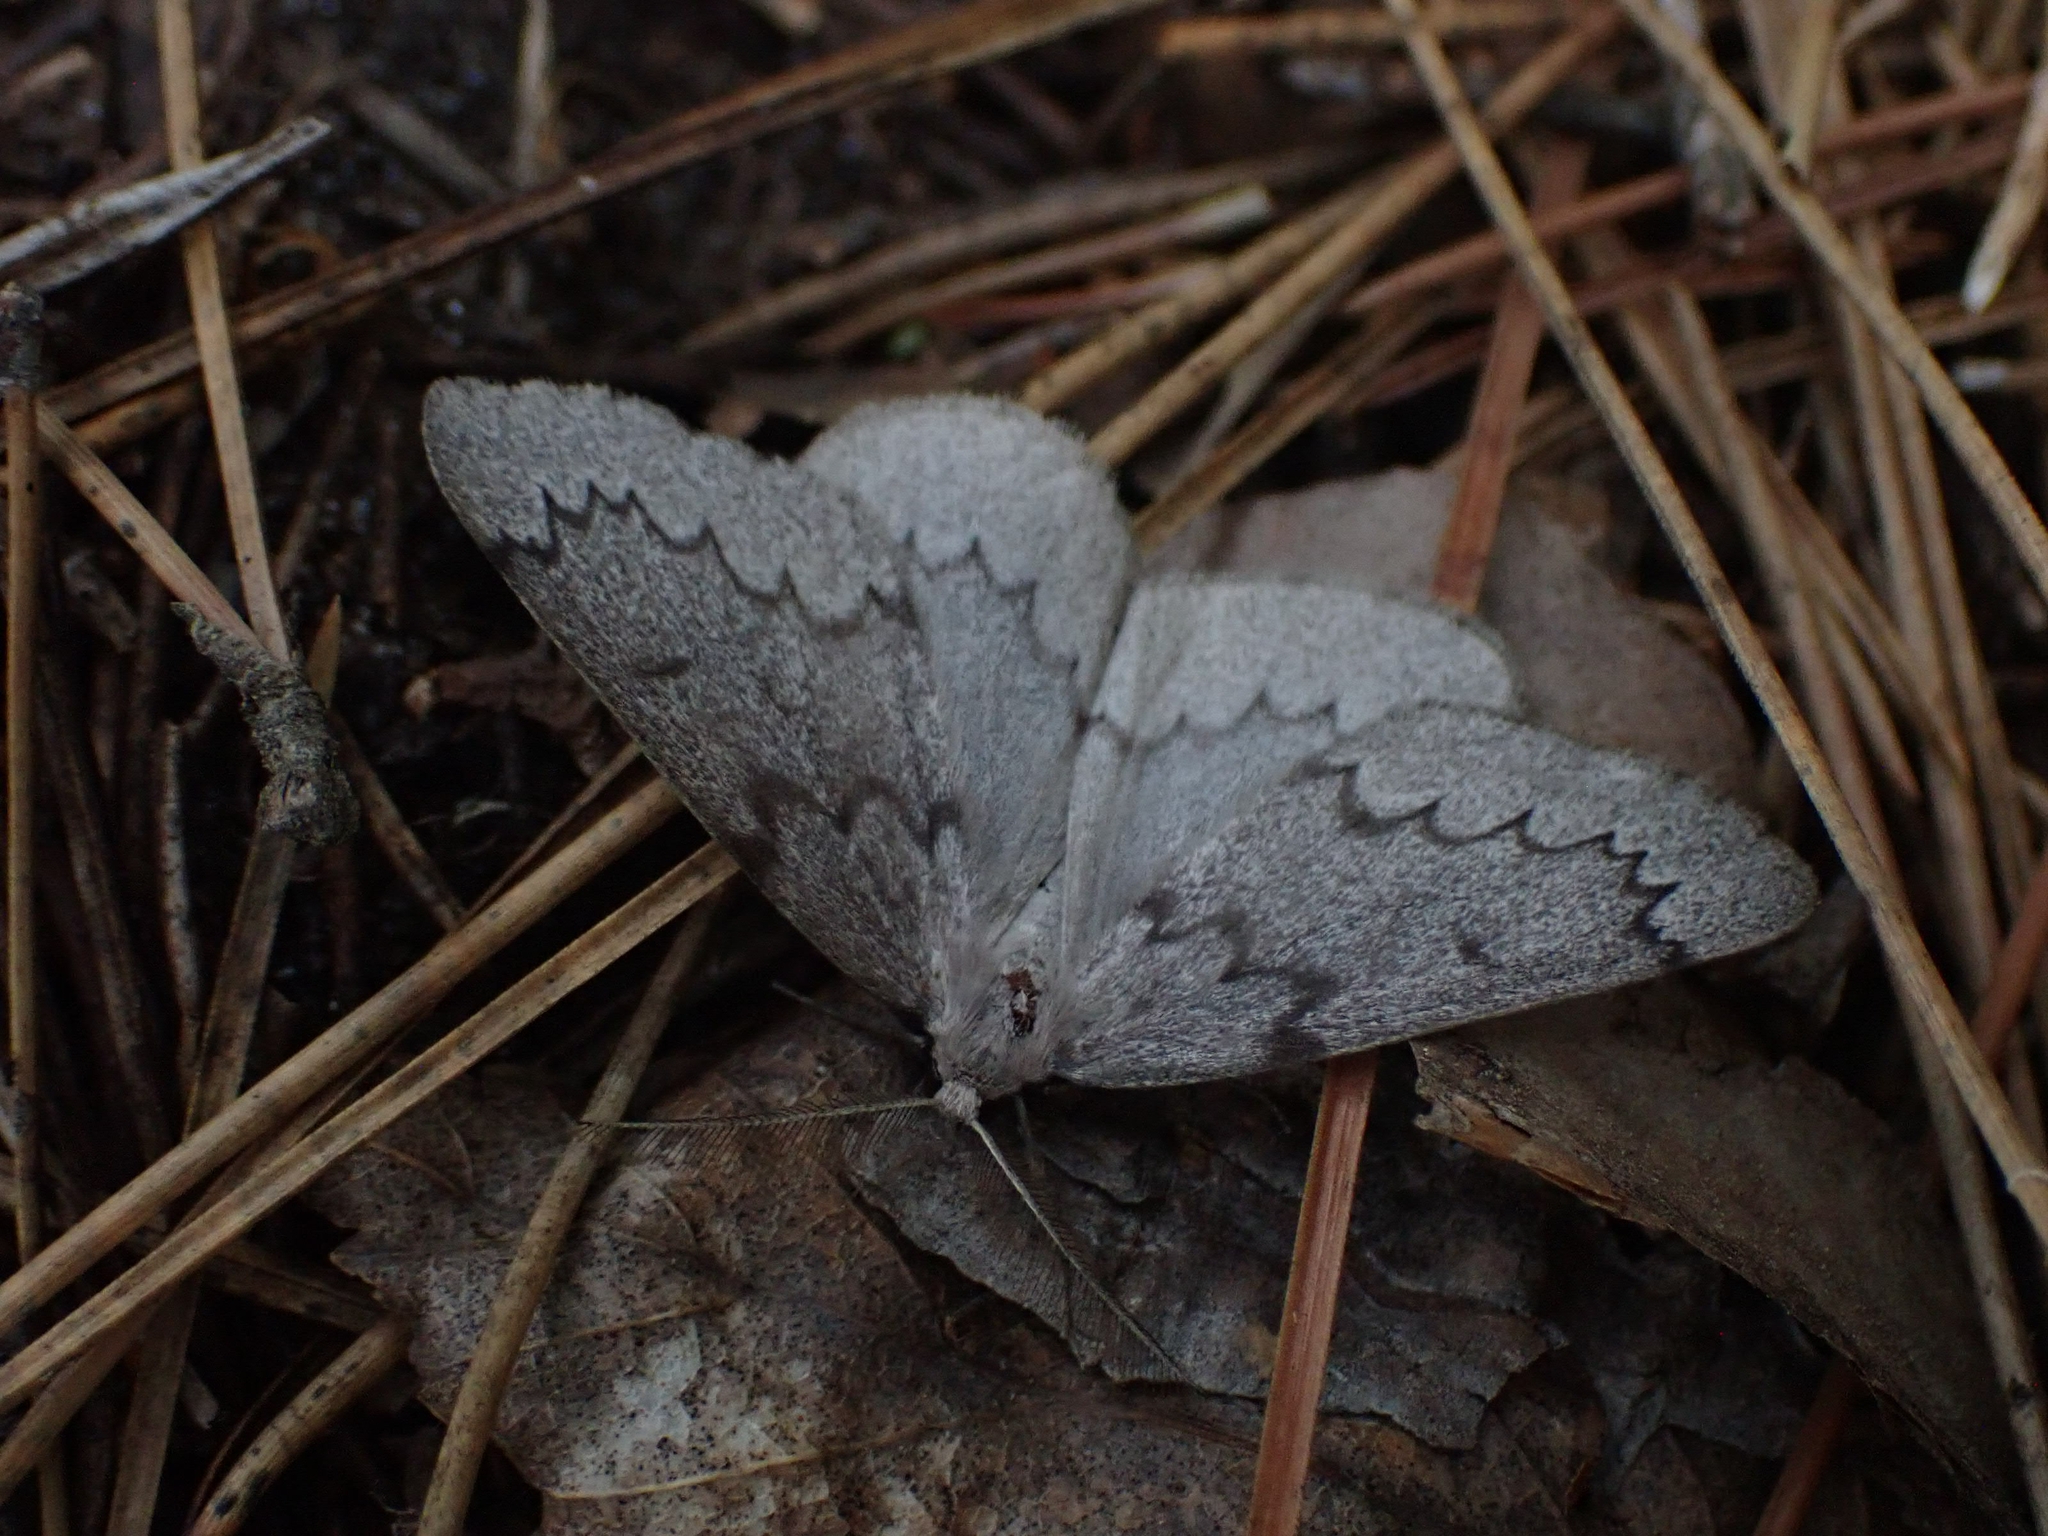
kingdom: Animalia
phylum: Arthropoda
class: Insecta
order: Lepidoptera
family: Geometridae
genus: Nepytia
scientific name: Nepytia pellucidaria
